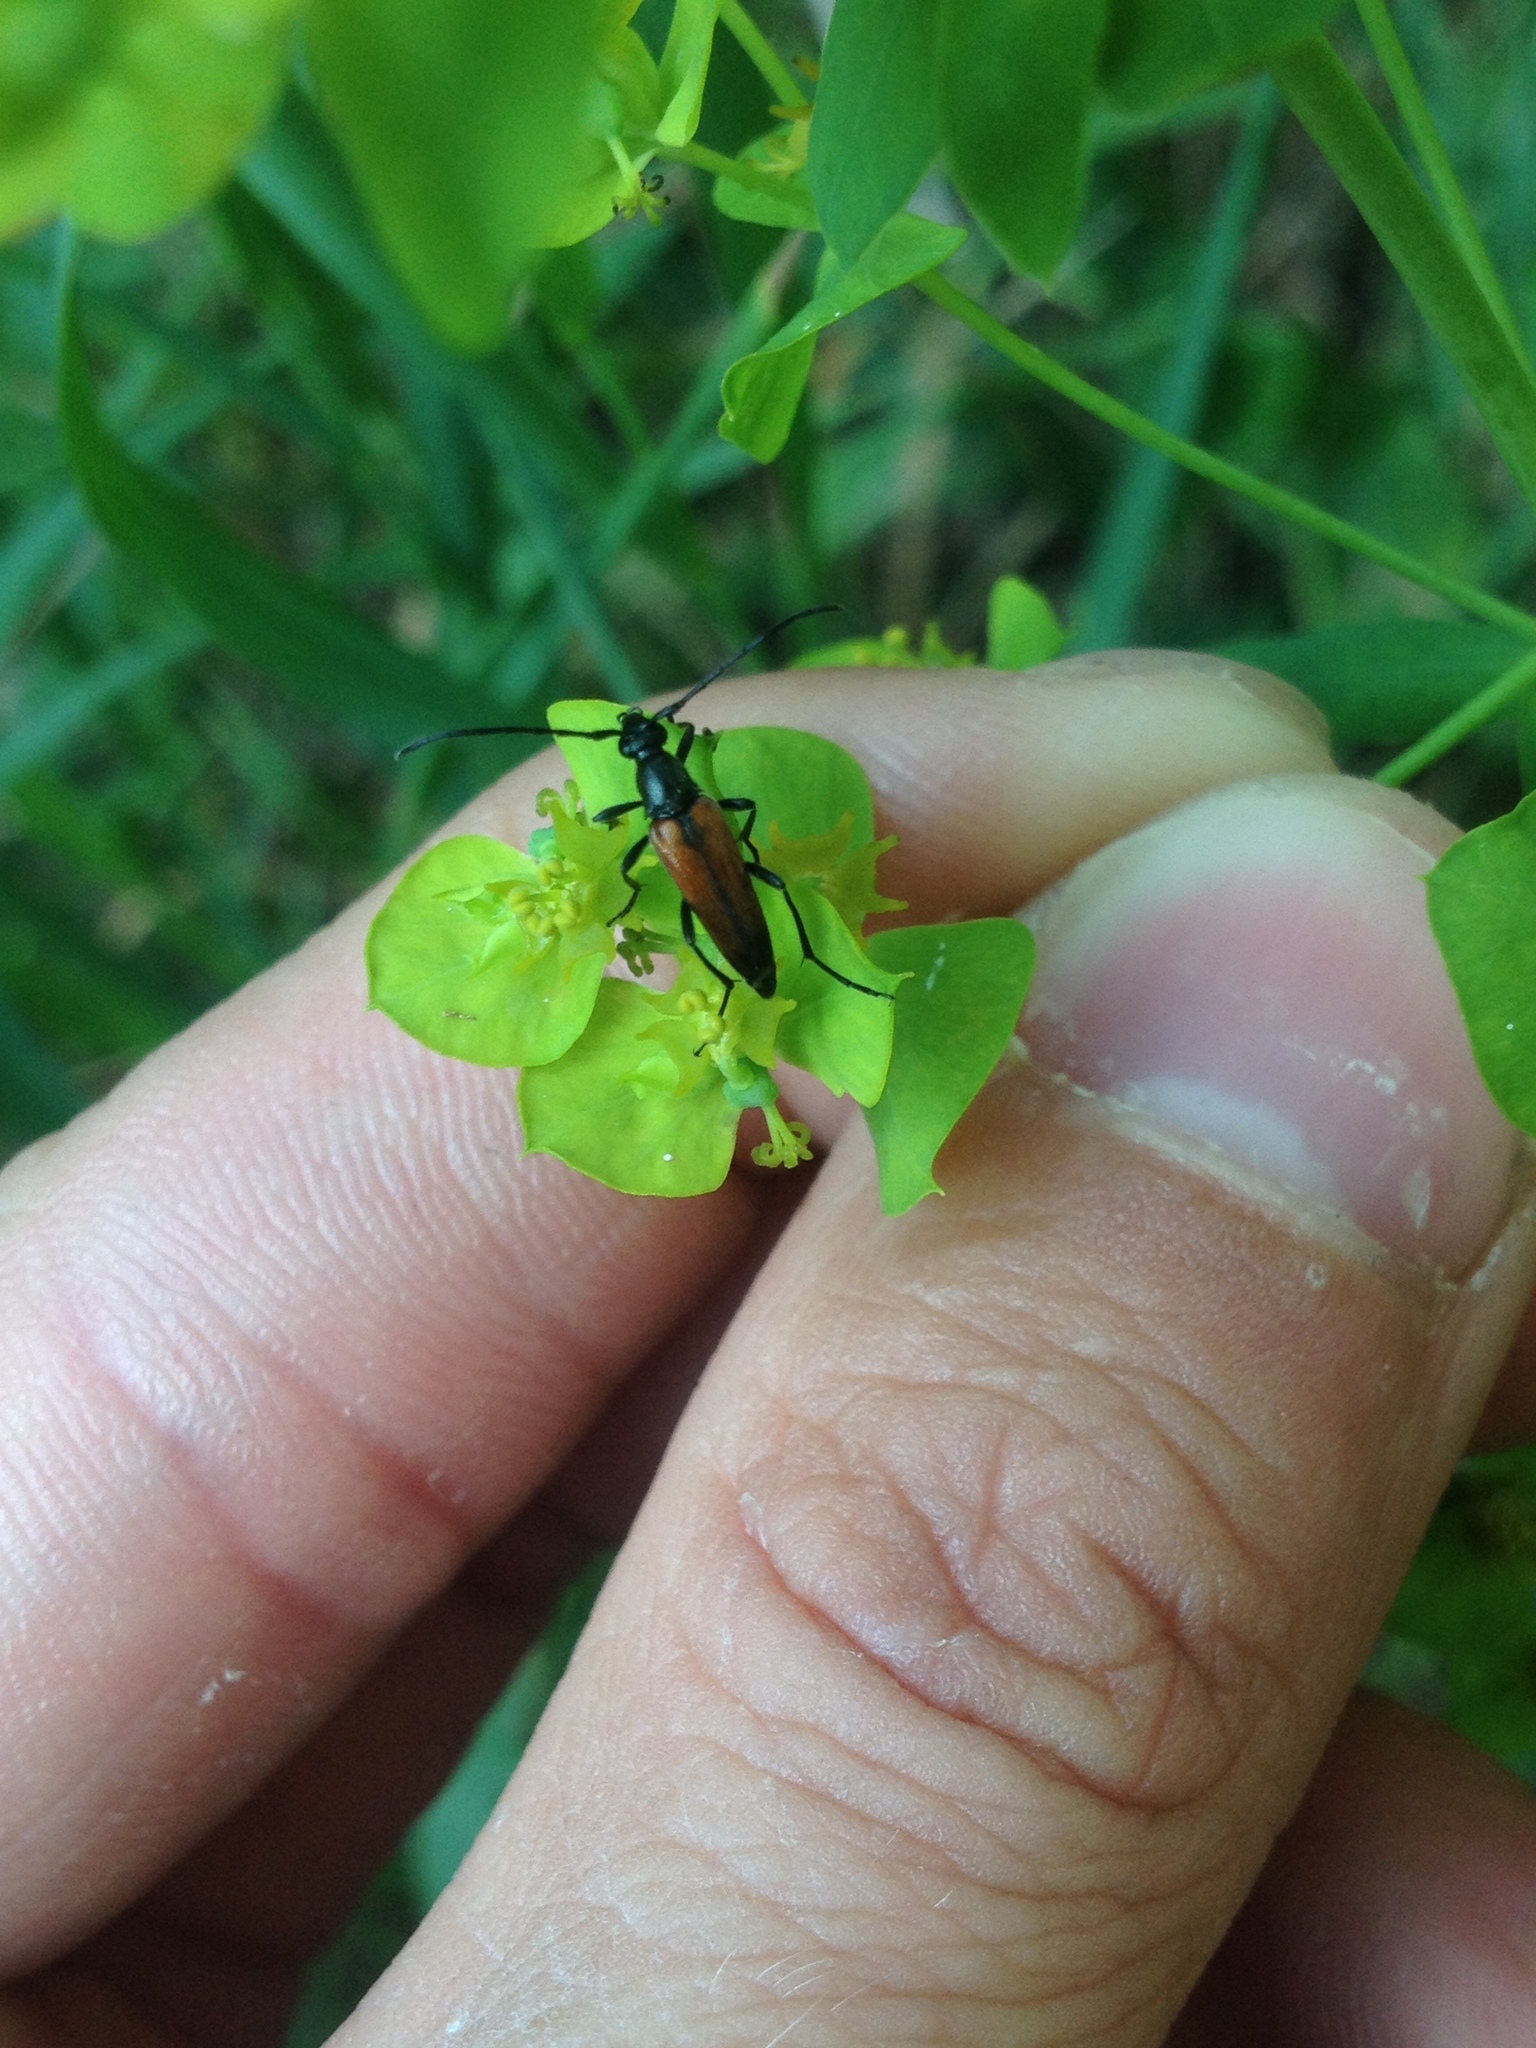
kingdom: Animalia
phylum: Arthropoda
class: Insecta
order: Coleoptera
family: Cerambycidae
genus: Stenurella
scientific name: Stenurella melanura
